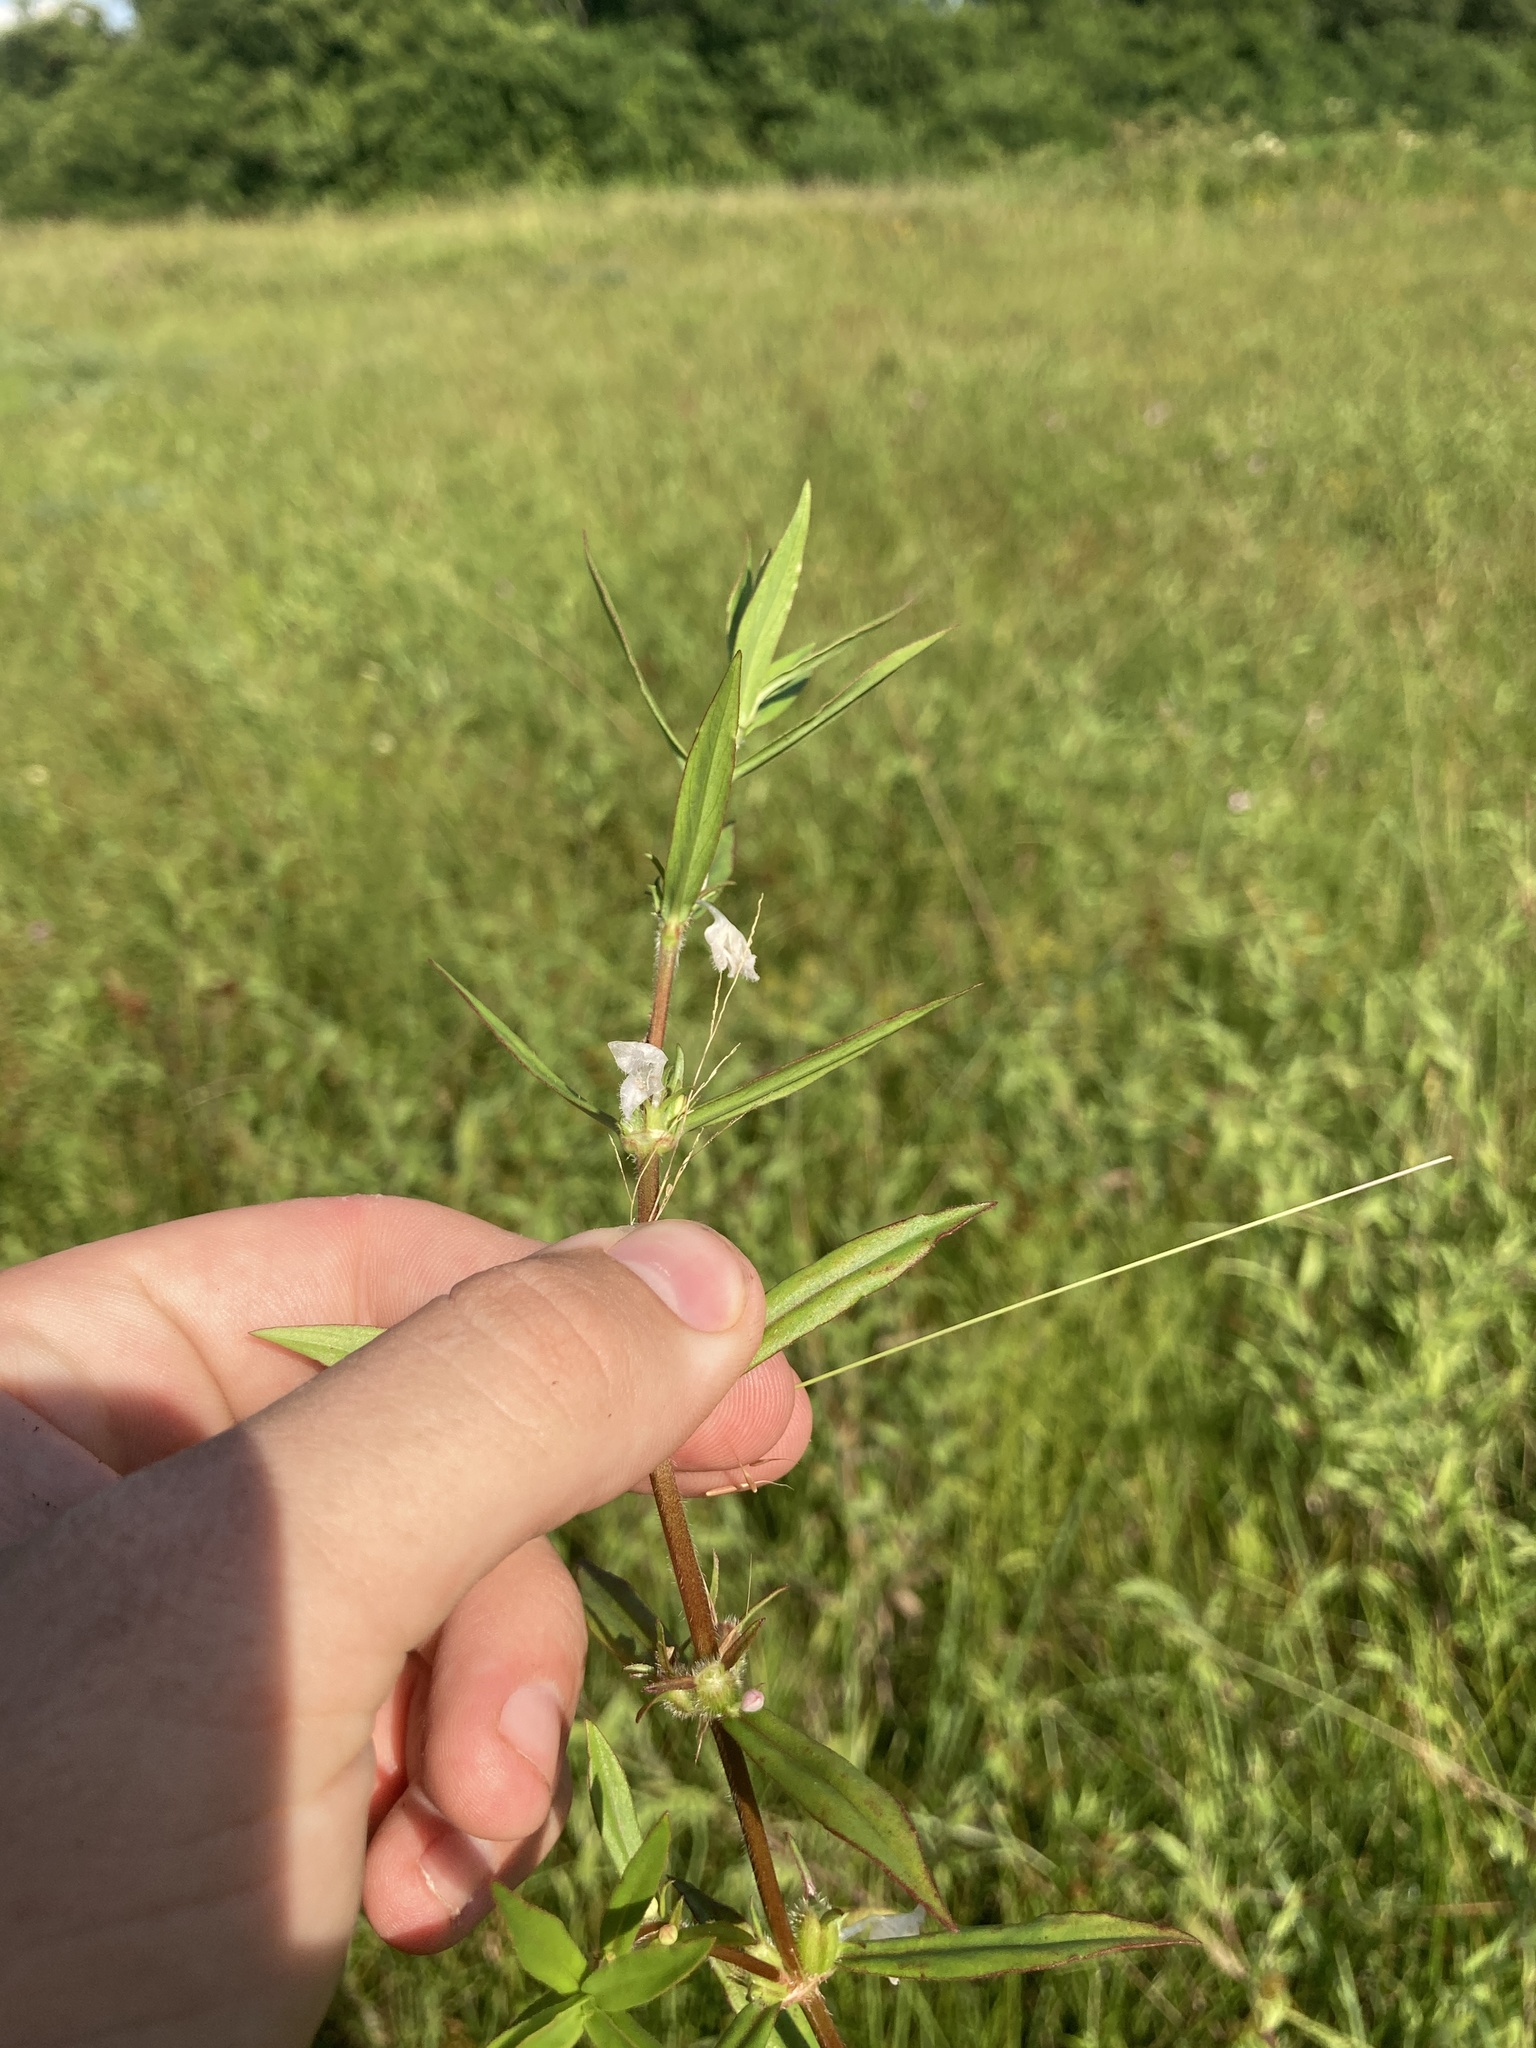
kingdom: Plantae
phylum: Tracheophyta
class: Magnoliopsida
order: Gentianales
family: Rubiaceae
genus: Diodia
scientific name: Diodia virginiana
